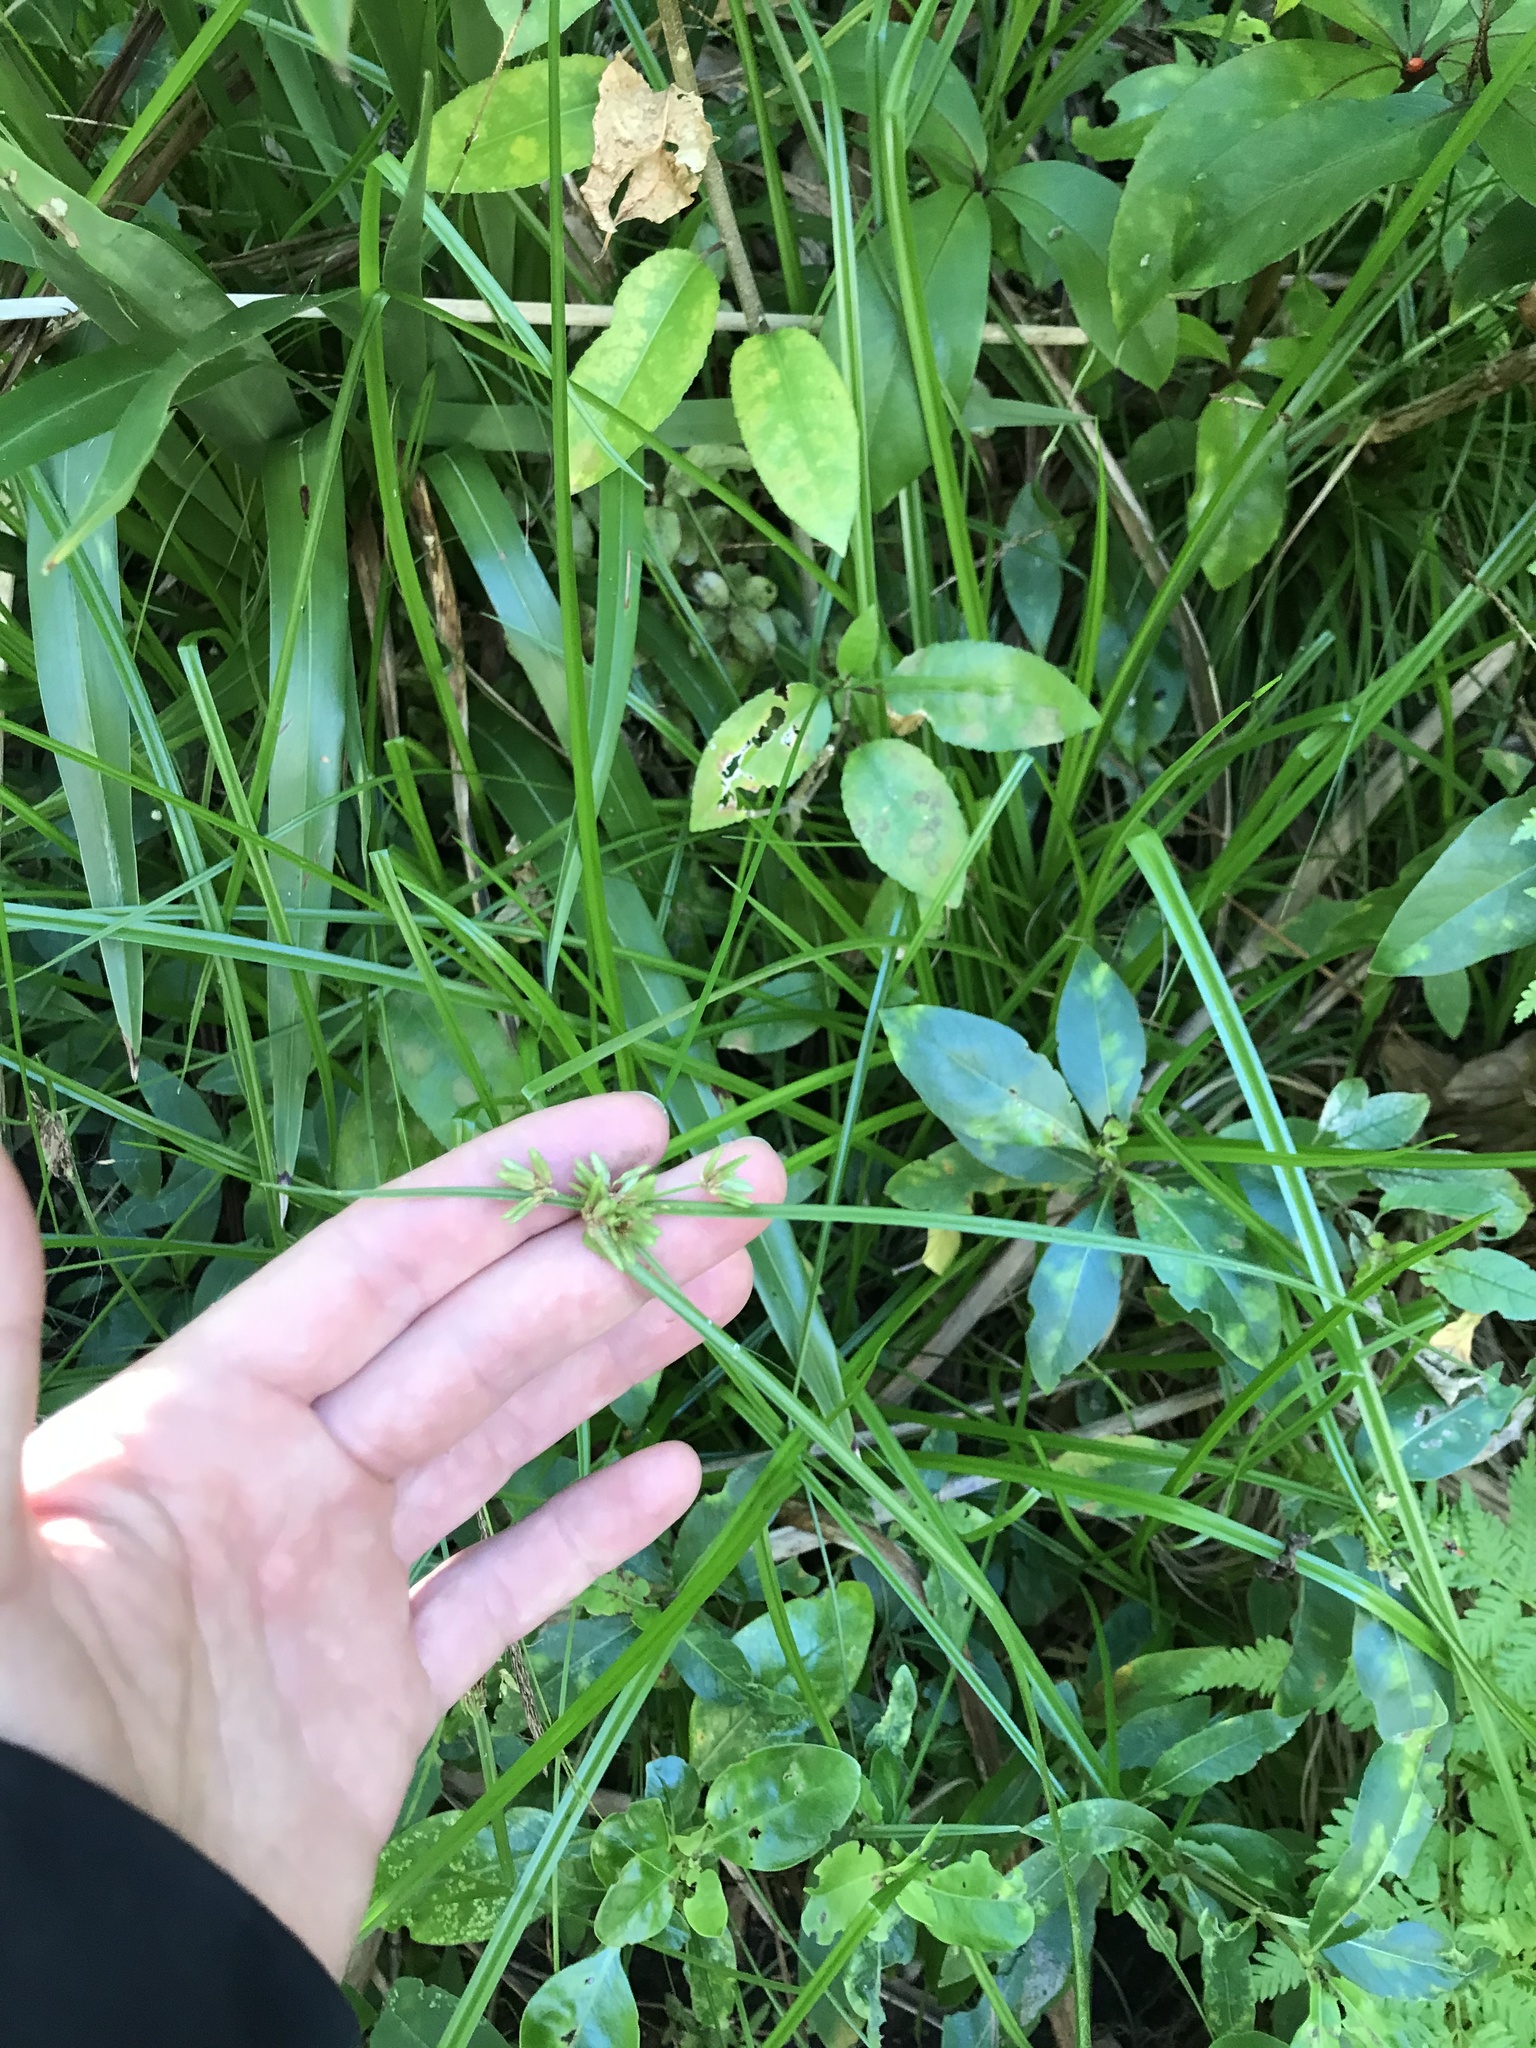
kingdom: Plantae
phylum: Tracheophyta
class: Liliopsida
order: Poales
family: Cyperaceae
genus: Cyperus
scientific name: Cyperus eragrostis
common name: Tall flatsedge
